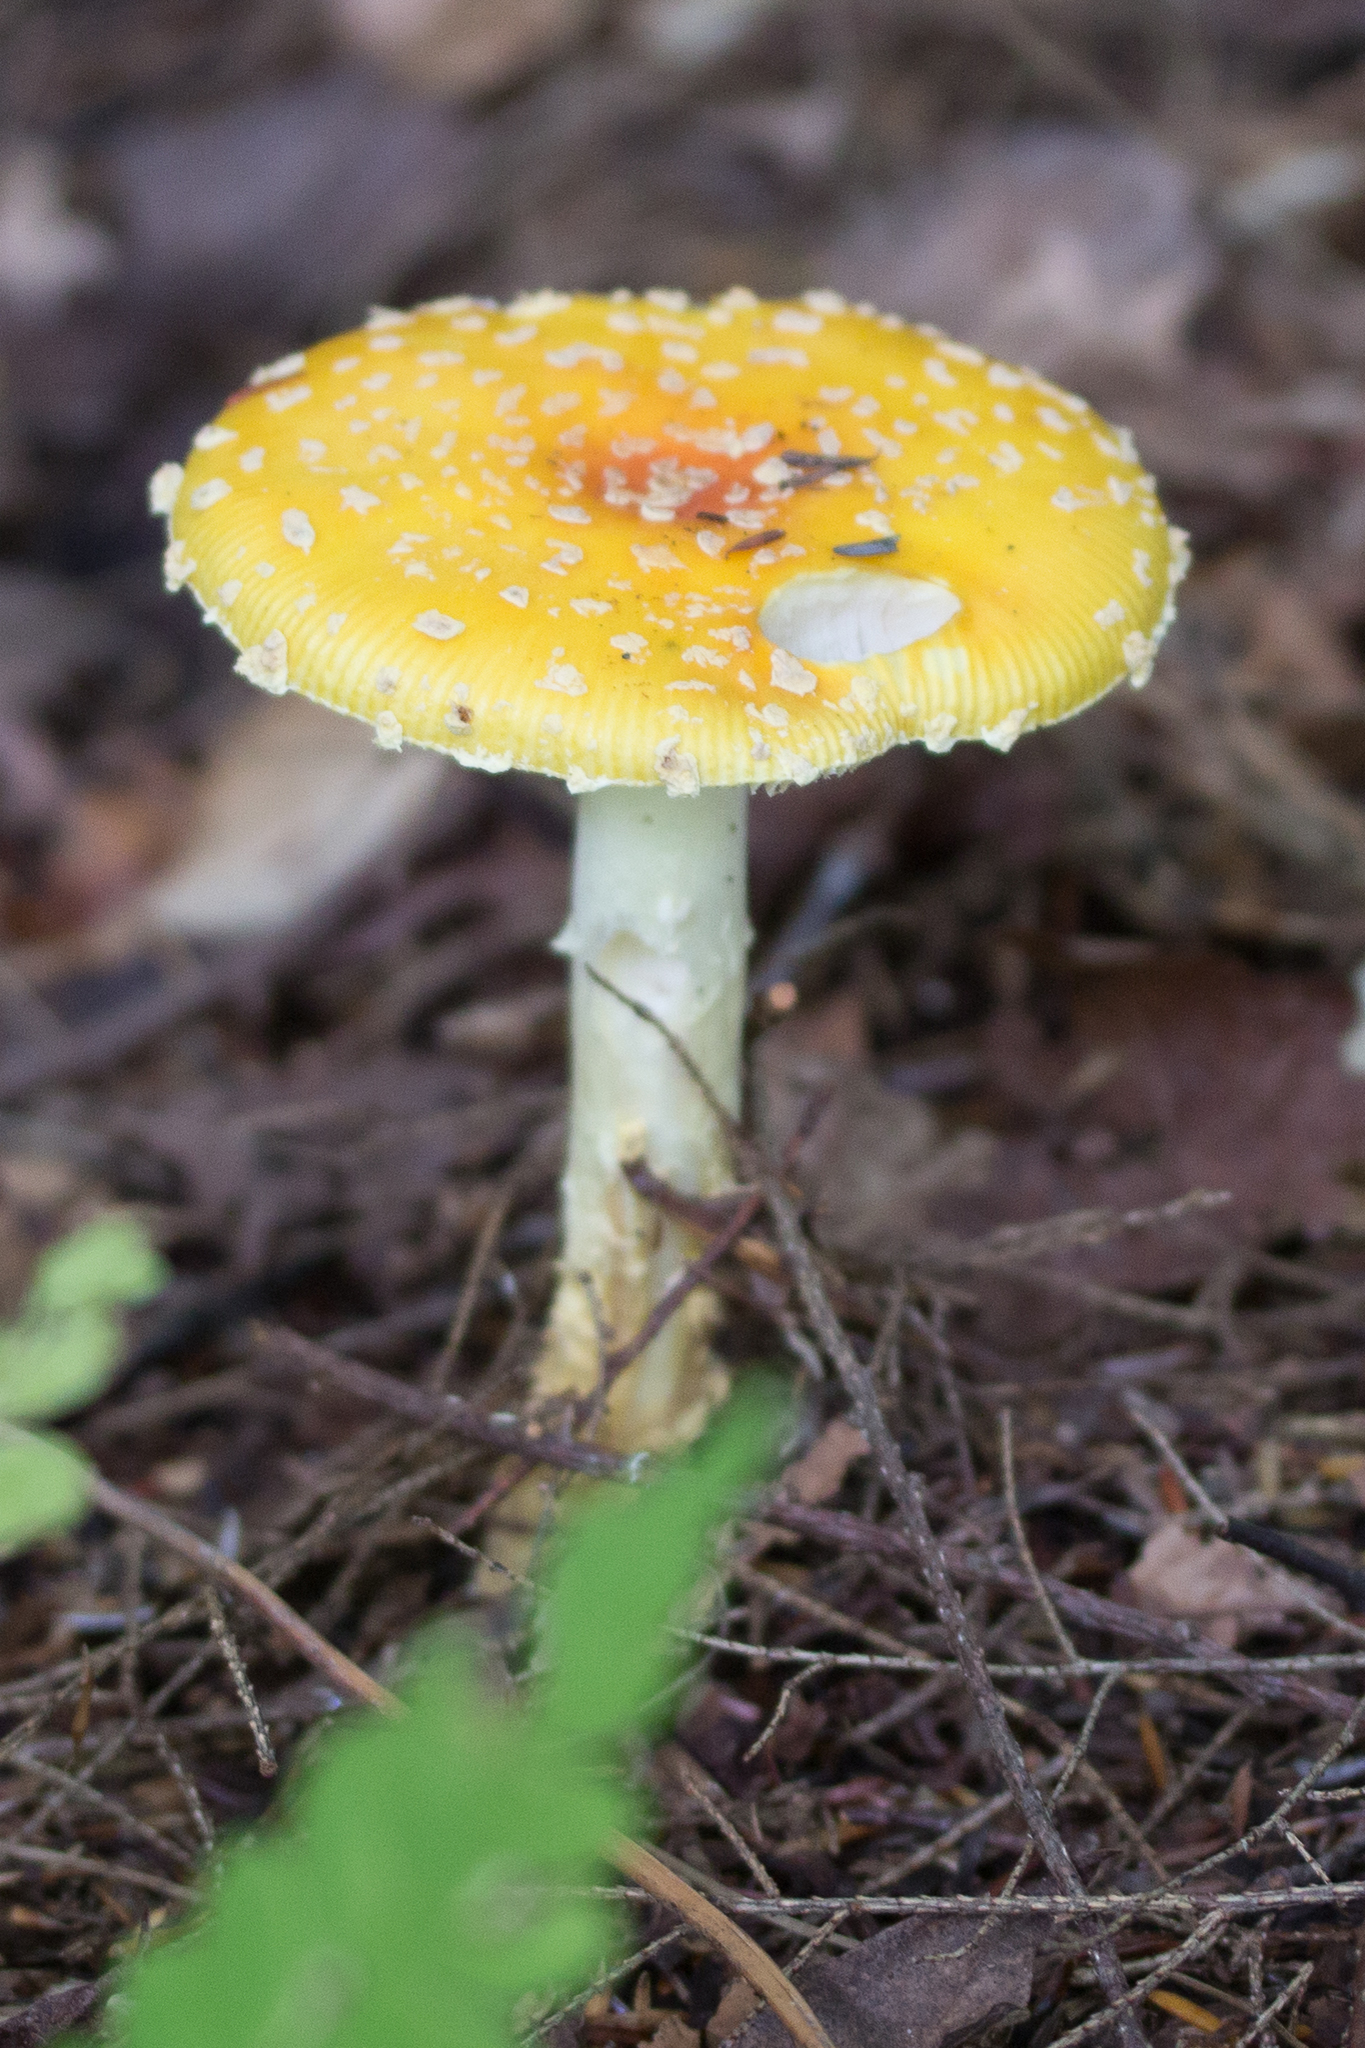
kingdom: Fungi
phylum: Basidiomycota
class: Agaricomycetes
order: Agaricales
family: Amanitaceae
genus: Amanita
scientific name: Amanita muscaria
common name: Fly agaric
